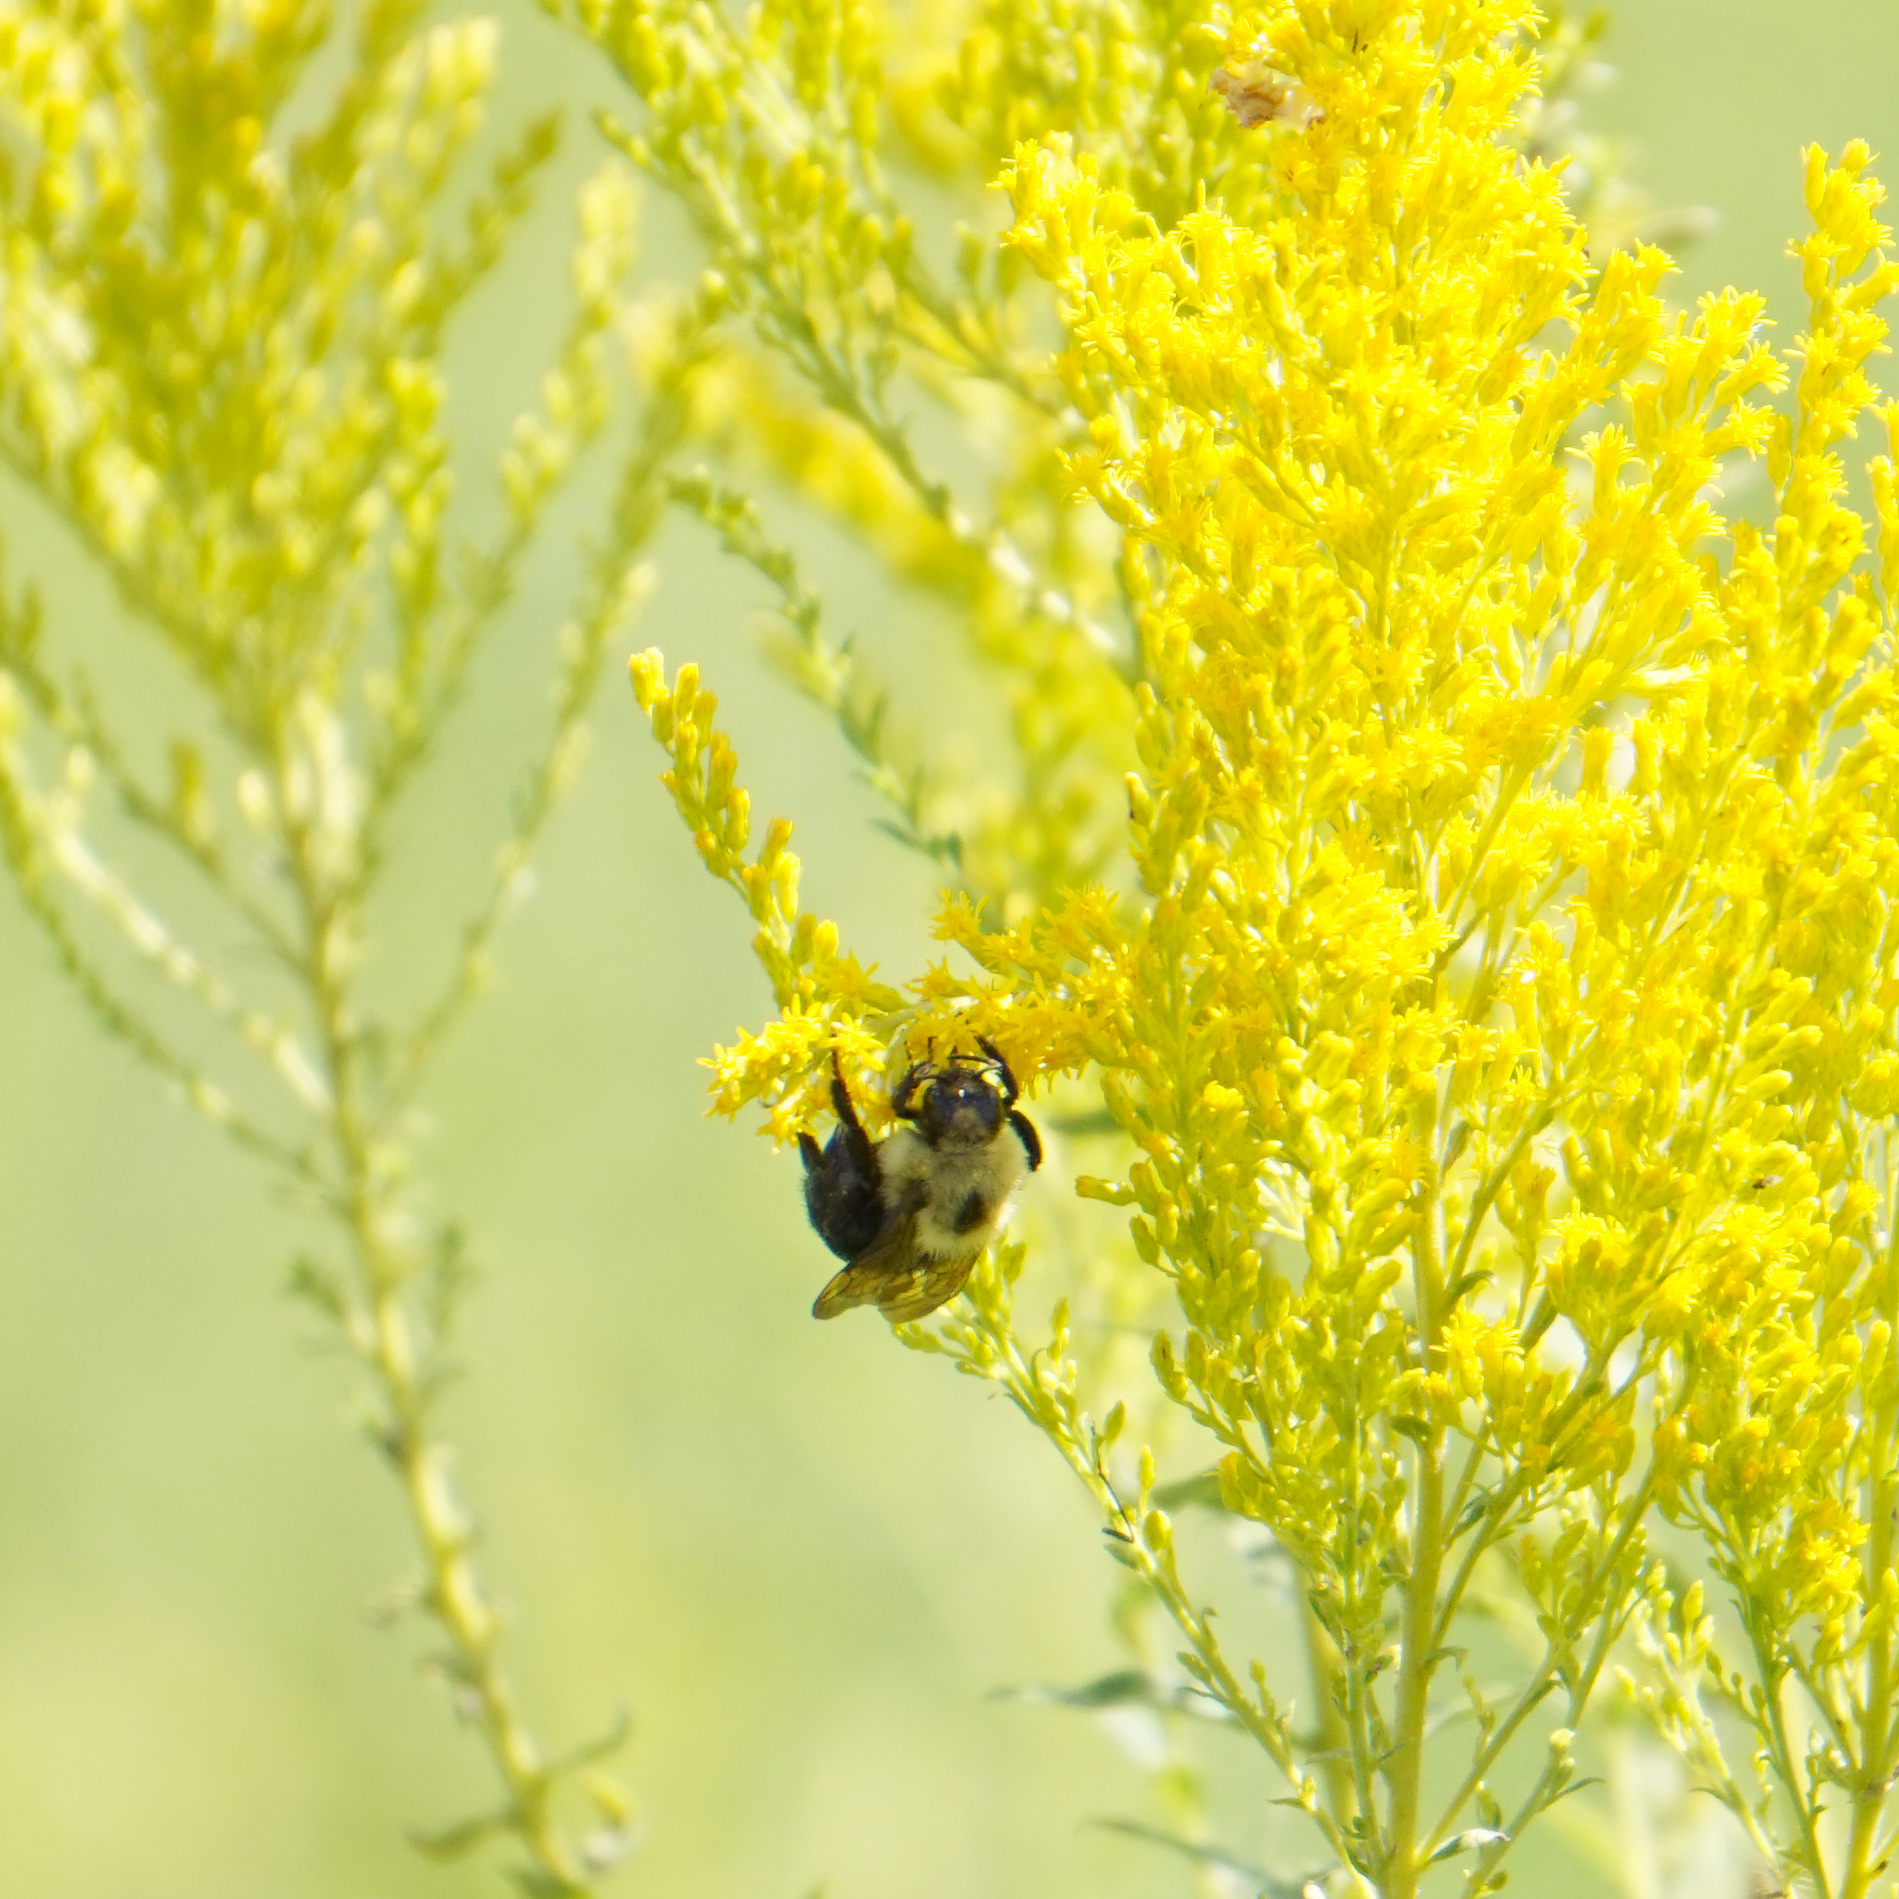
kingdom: Animalia
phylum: Arthropoda
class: Insecta
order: Hymenoptera
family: Apidae
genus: Bombus
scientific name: Bombus citrinus
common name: Lemon cuckoo bumble bee
